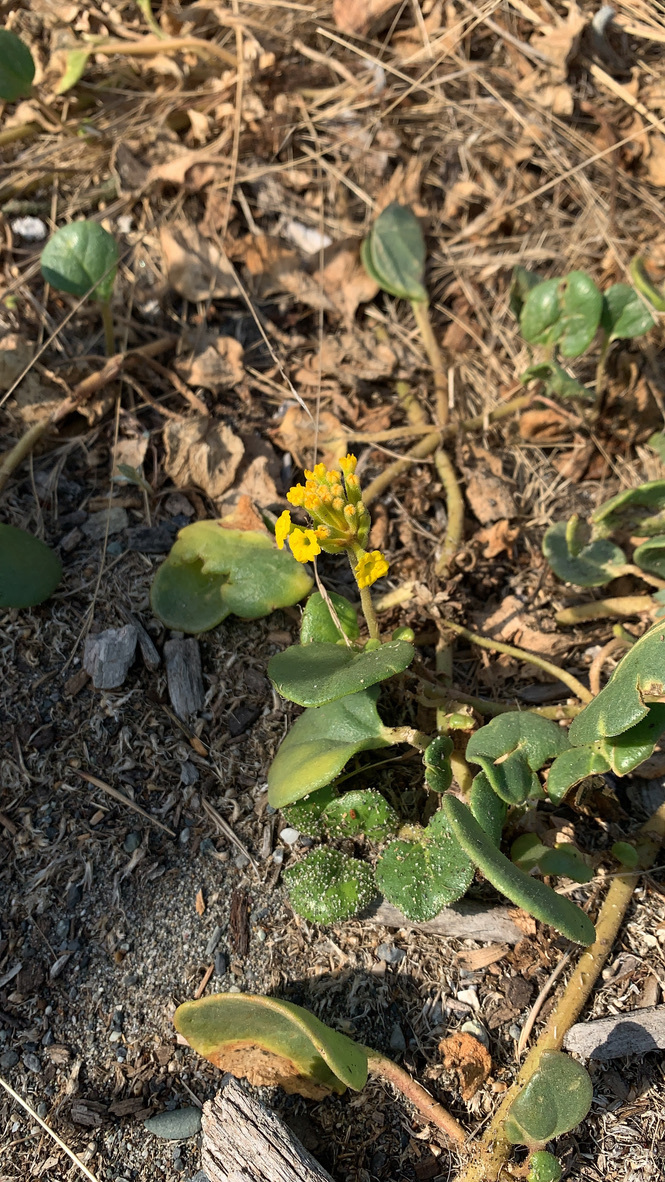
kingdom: Plantae
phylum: Tracheophyta
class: Magnoliopsida
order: Caryophyllales
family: Nyctaginaceae
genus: Abronia
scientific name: Abronia latifolia
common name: Yellow sand-verbena
